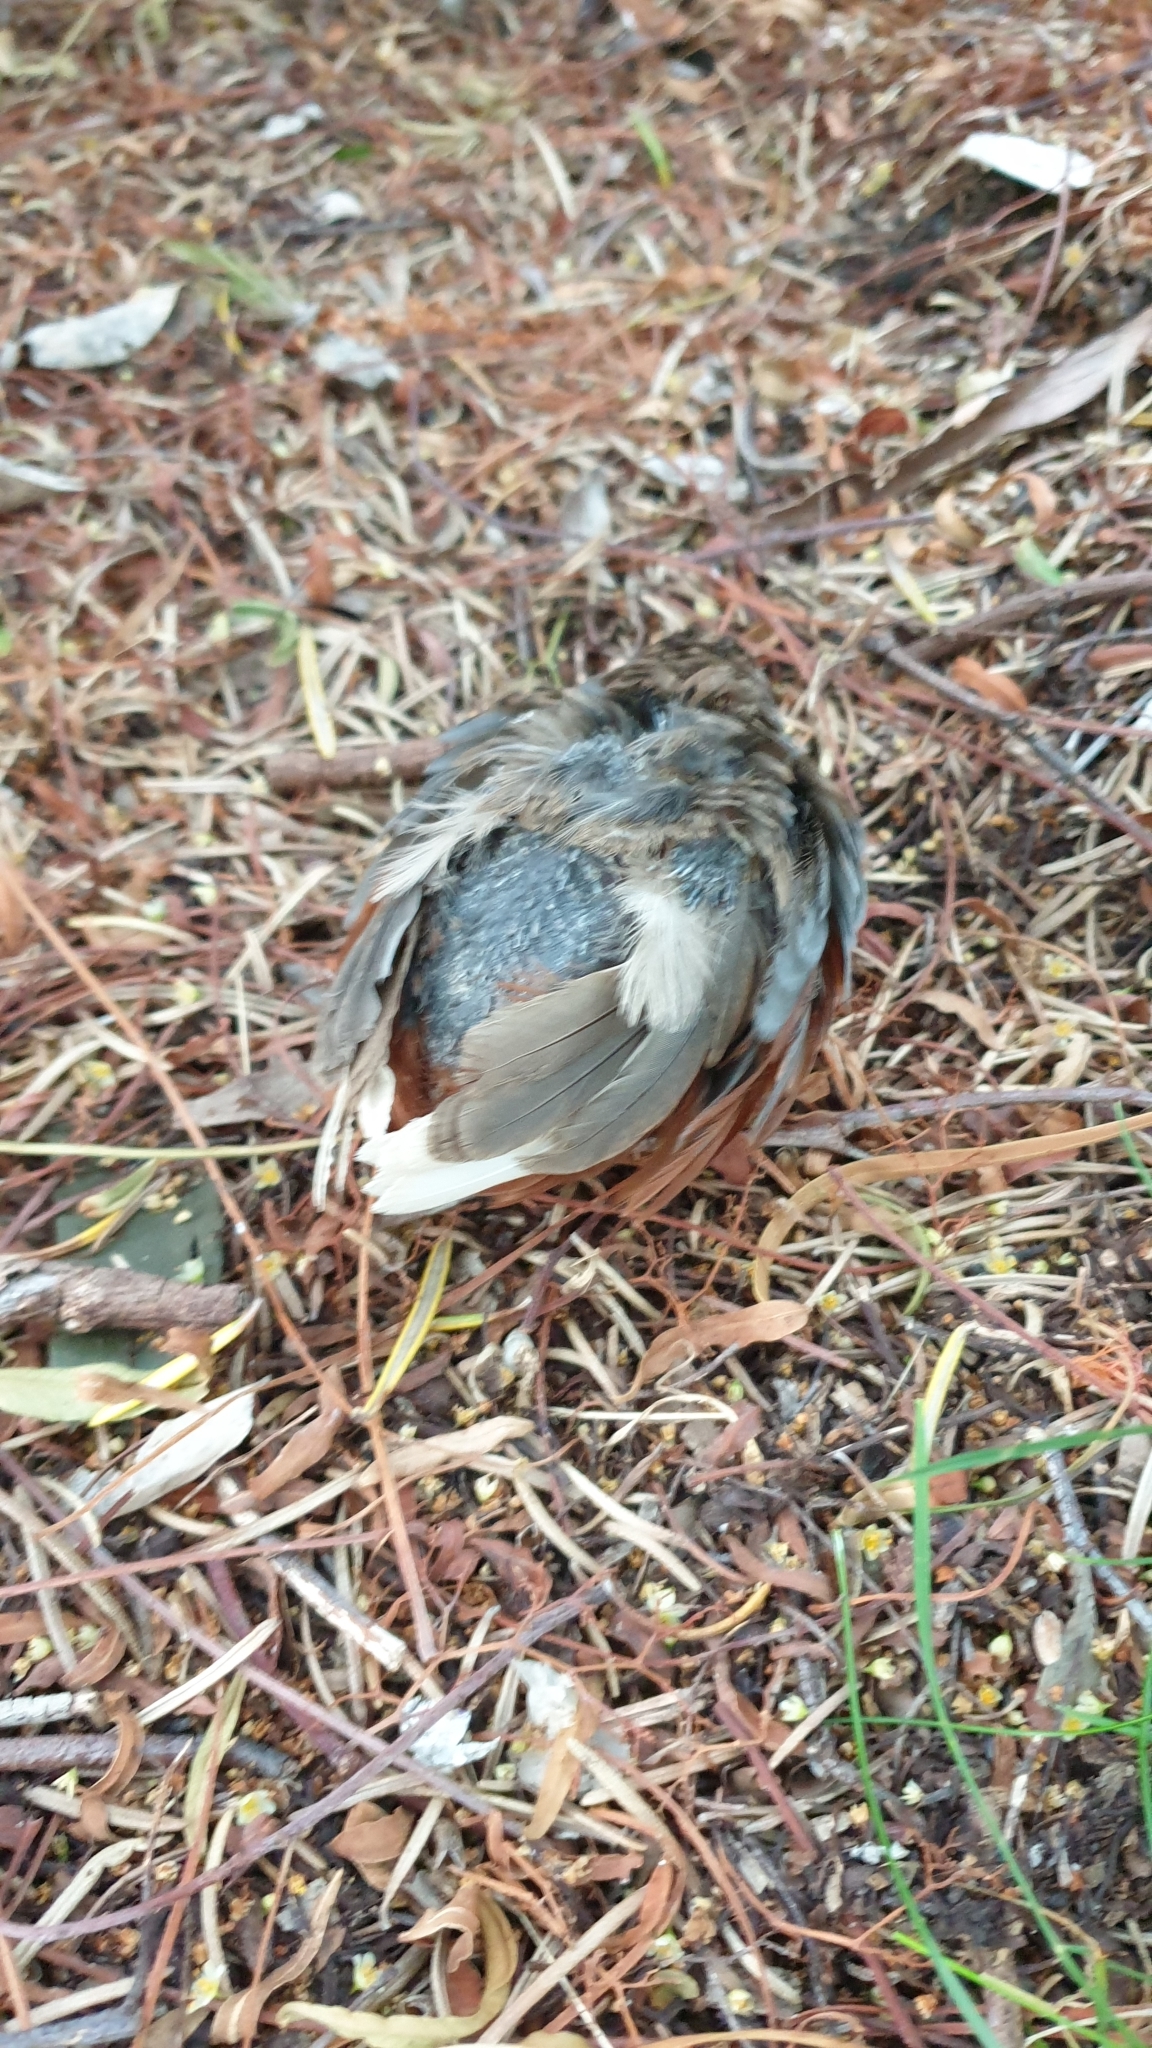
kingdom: Animalia
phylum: Chordata
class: Aves
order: Galliformes
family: Phasianidae
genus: Synoicus
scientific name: Synoicus chinensis
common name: Blue-breasted quail
